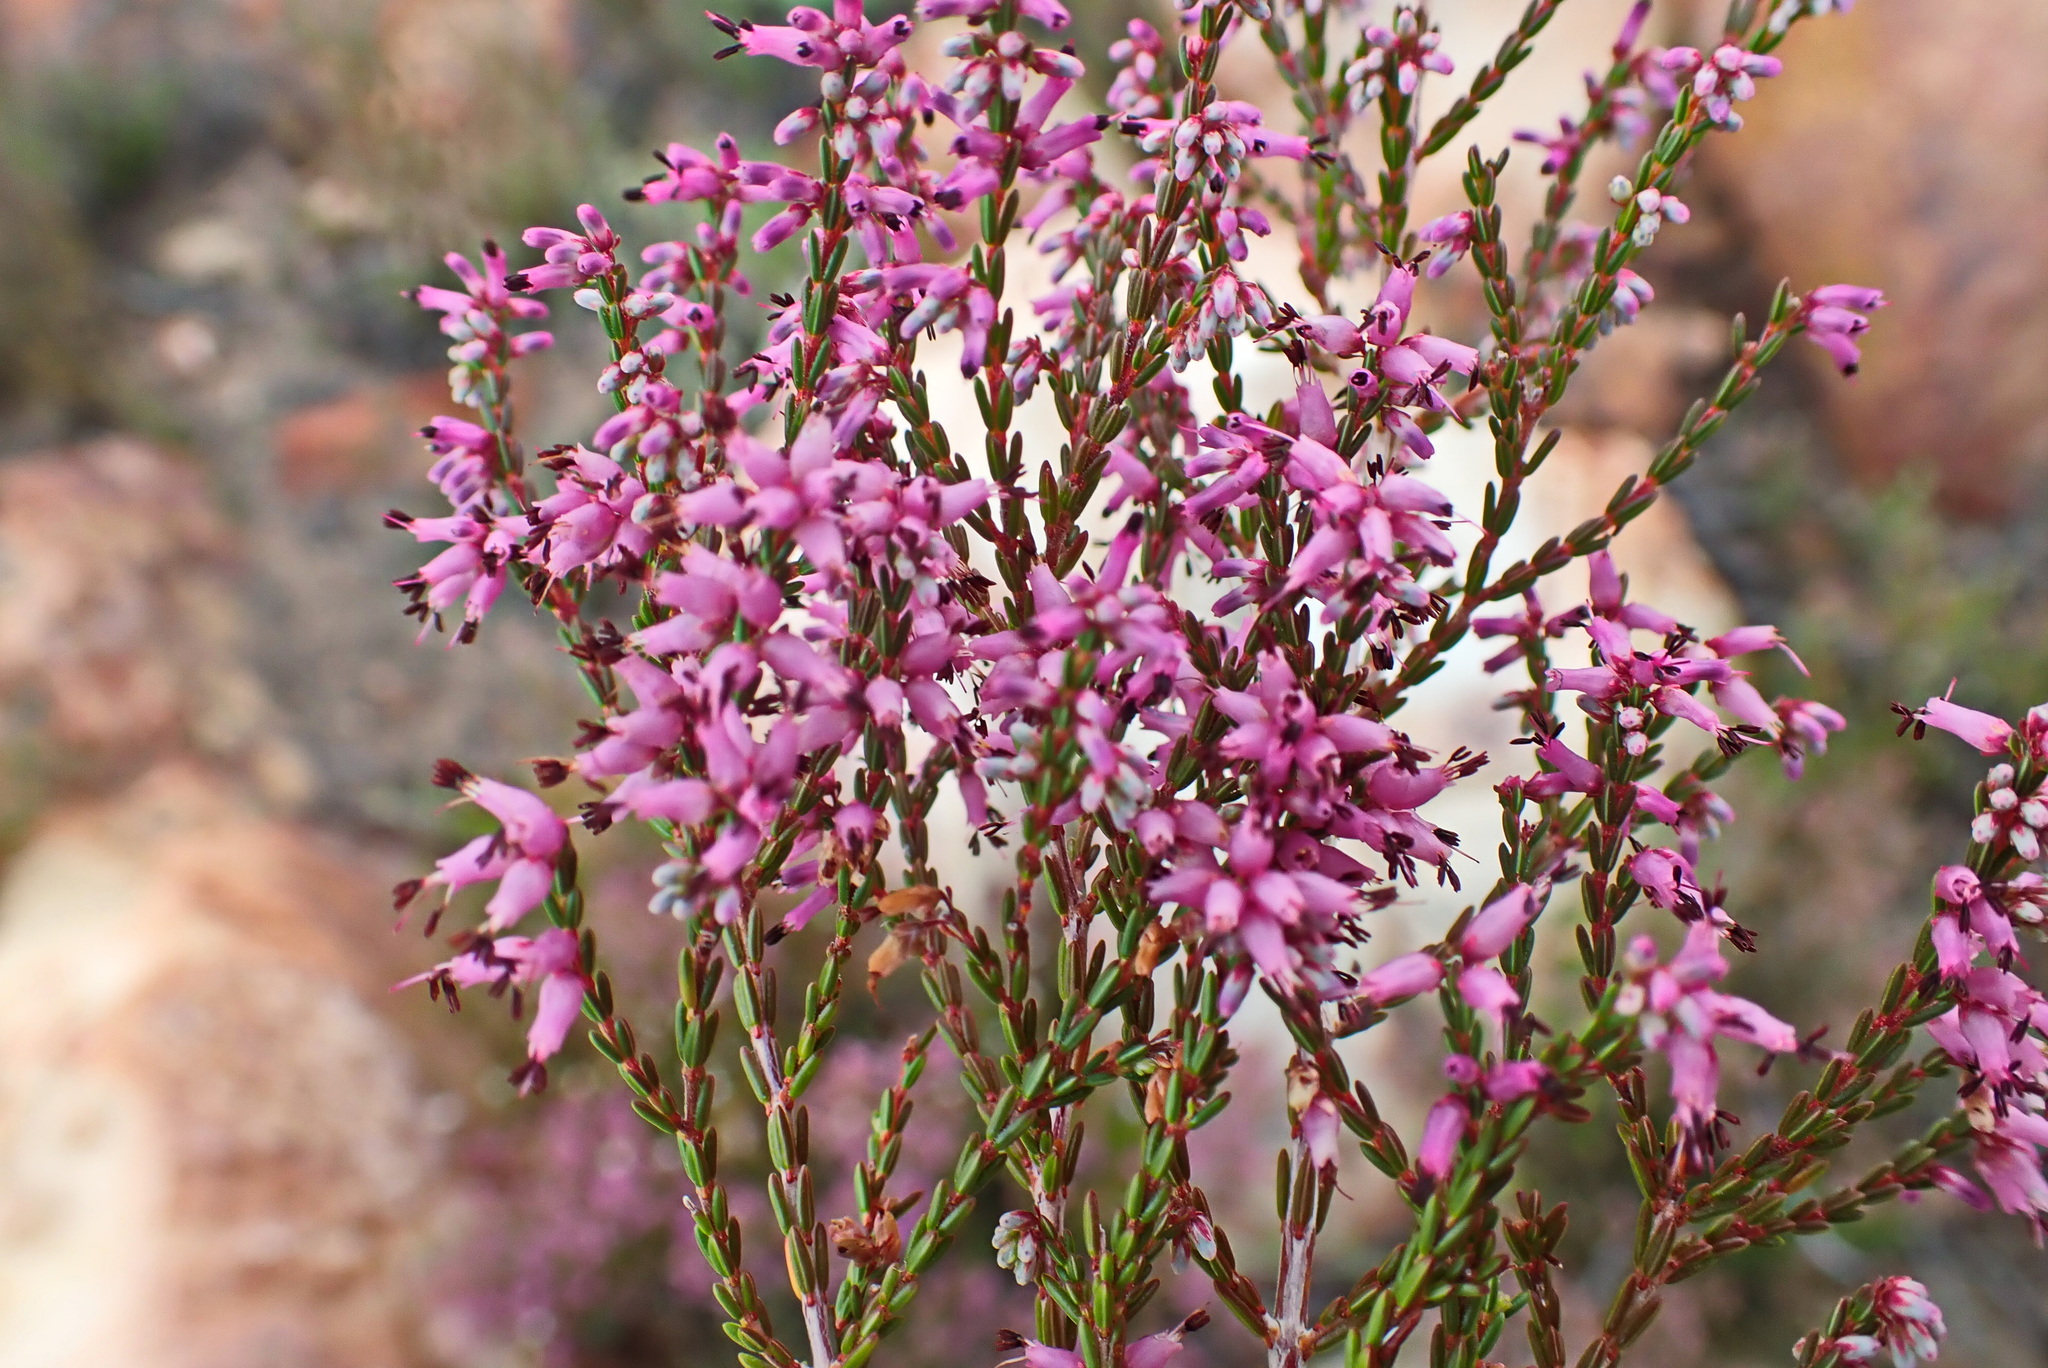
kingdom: Plantae
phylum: Tracheophyta
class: Magnoliopsida
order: Ericales
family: Ericaceae
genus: Erica
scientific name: Erica rosacea
